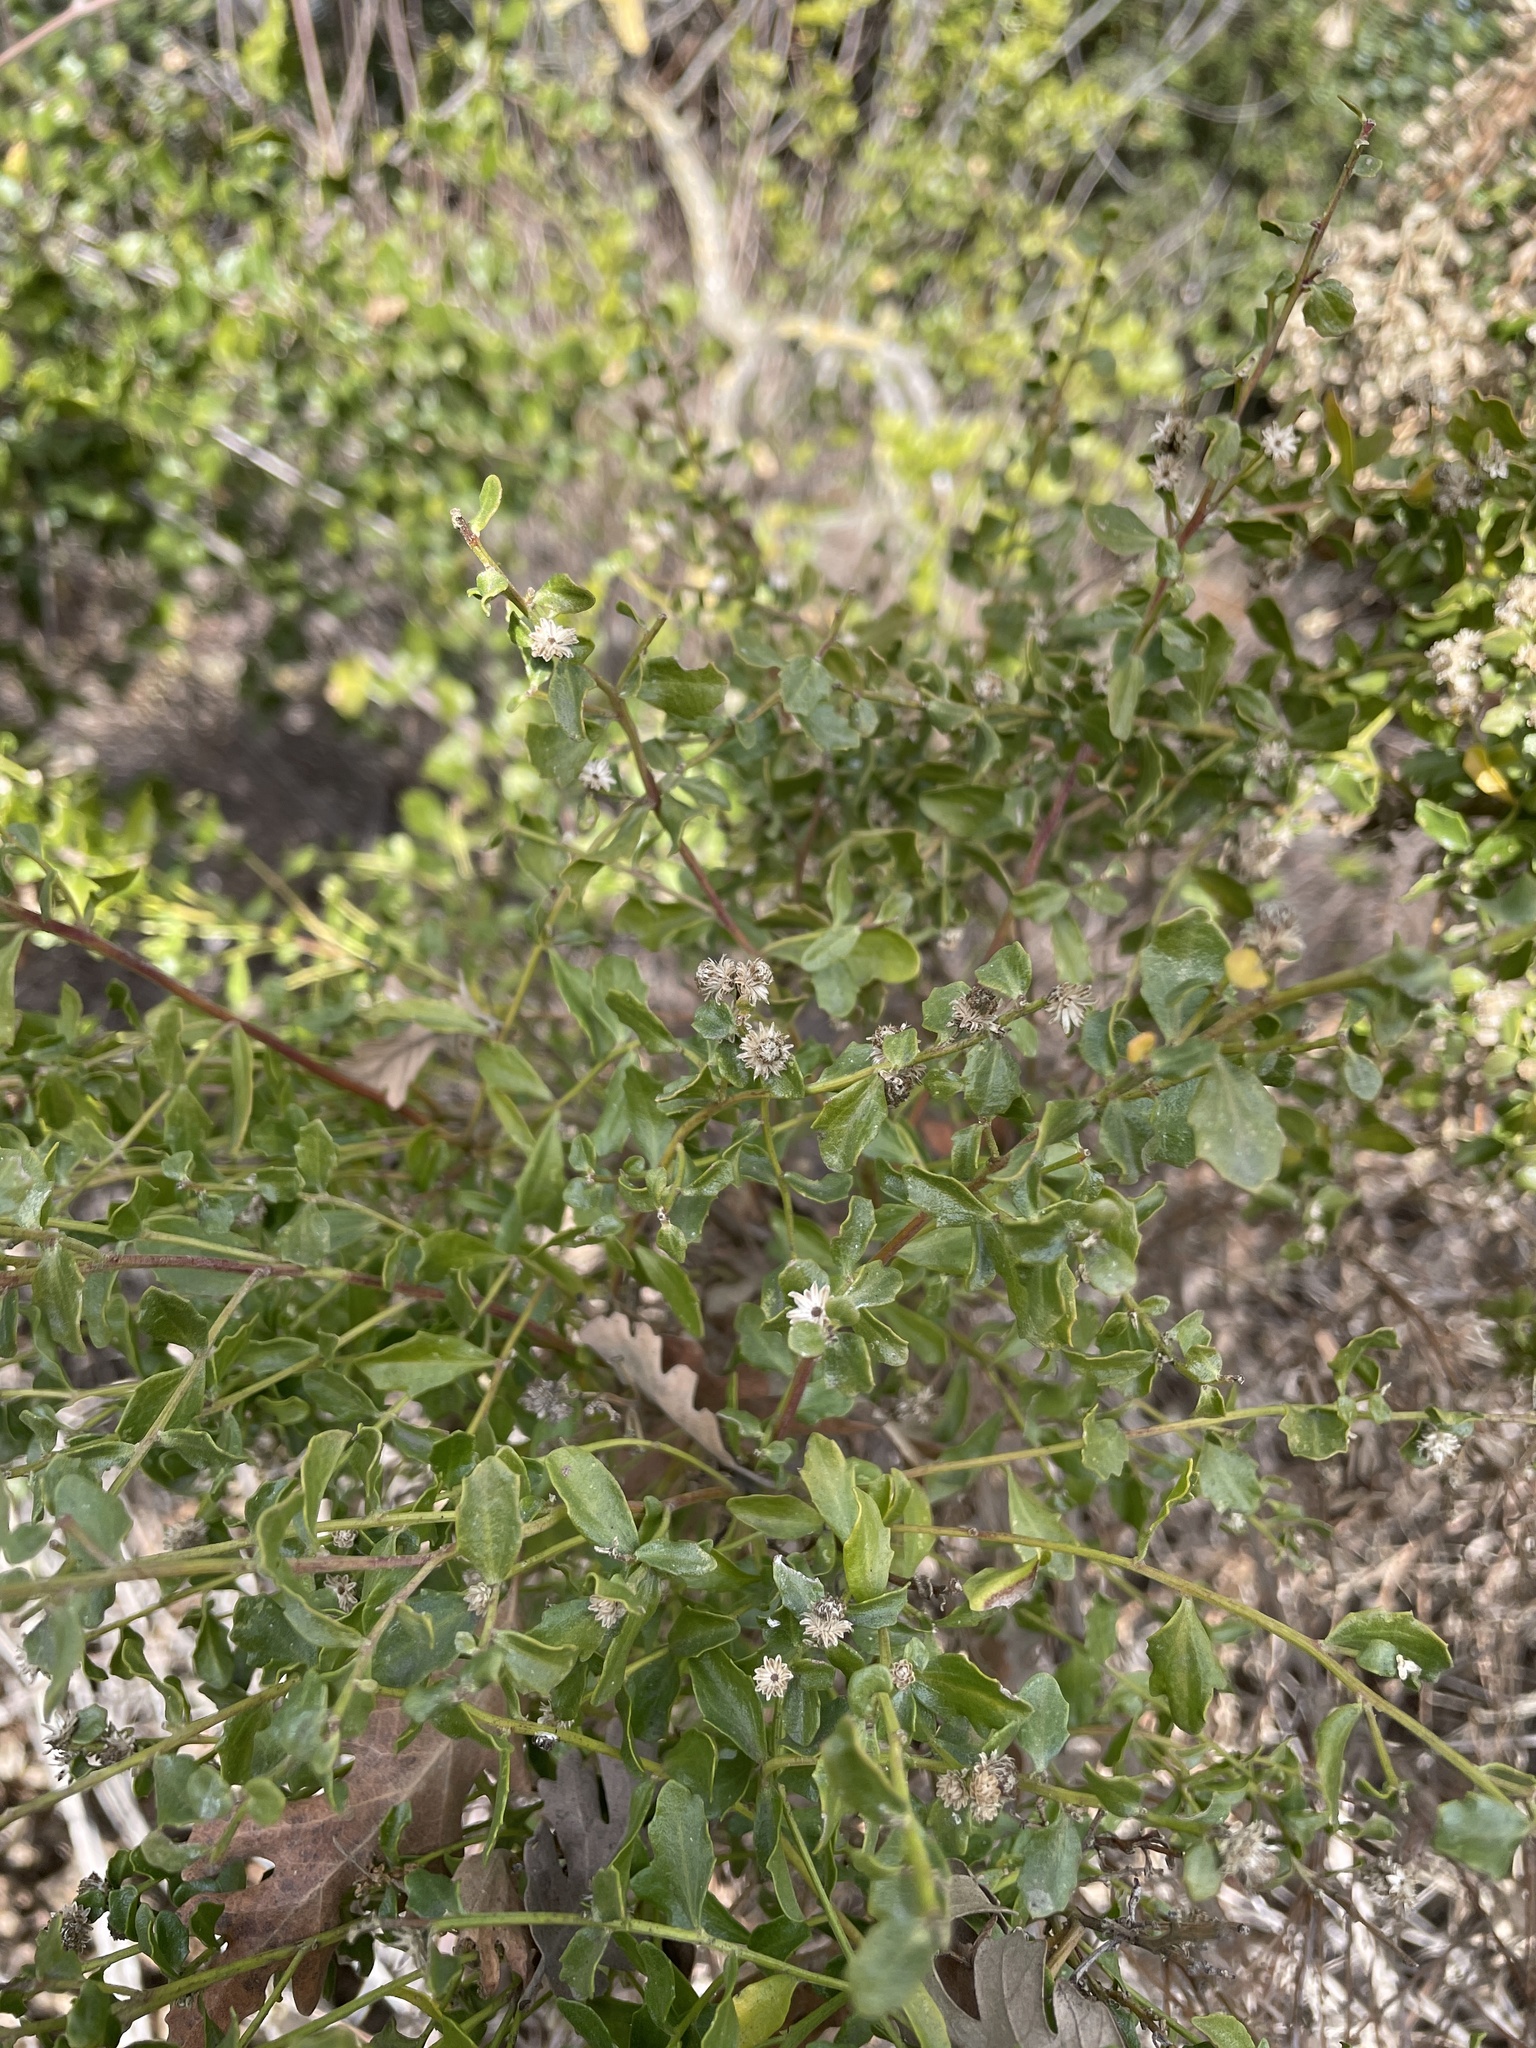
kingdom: Plantae
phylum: Tracheophyta
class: Magnoliopsida
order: Asterales
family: Asteraceae
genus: Baccharis
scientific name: Baccharis pilularis
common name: Coyotebrush
